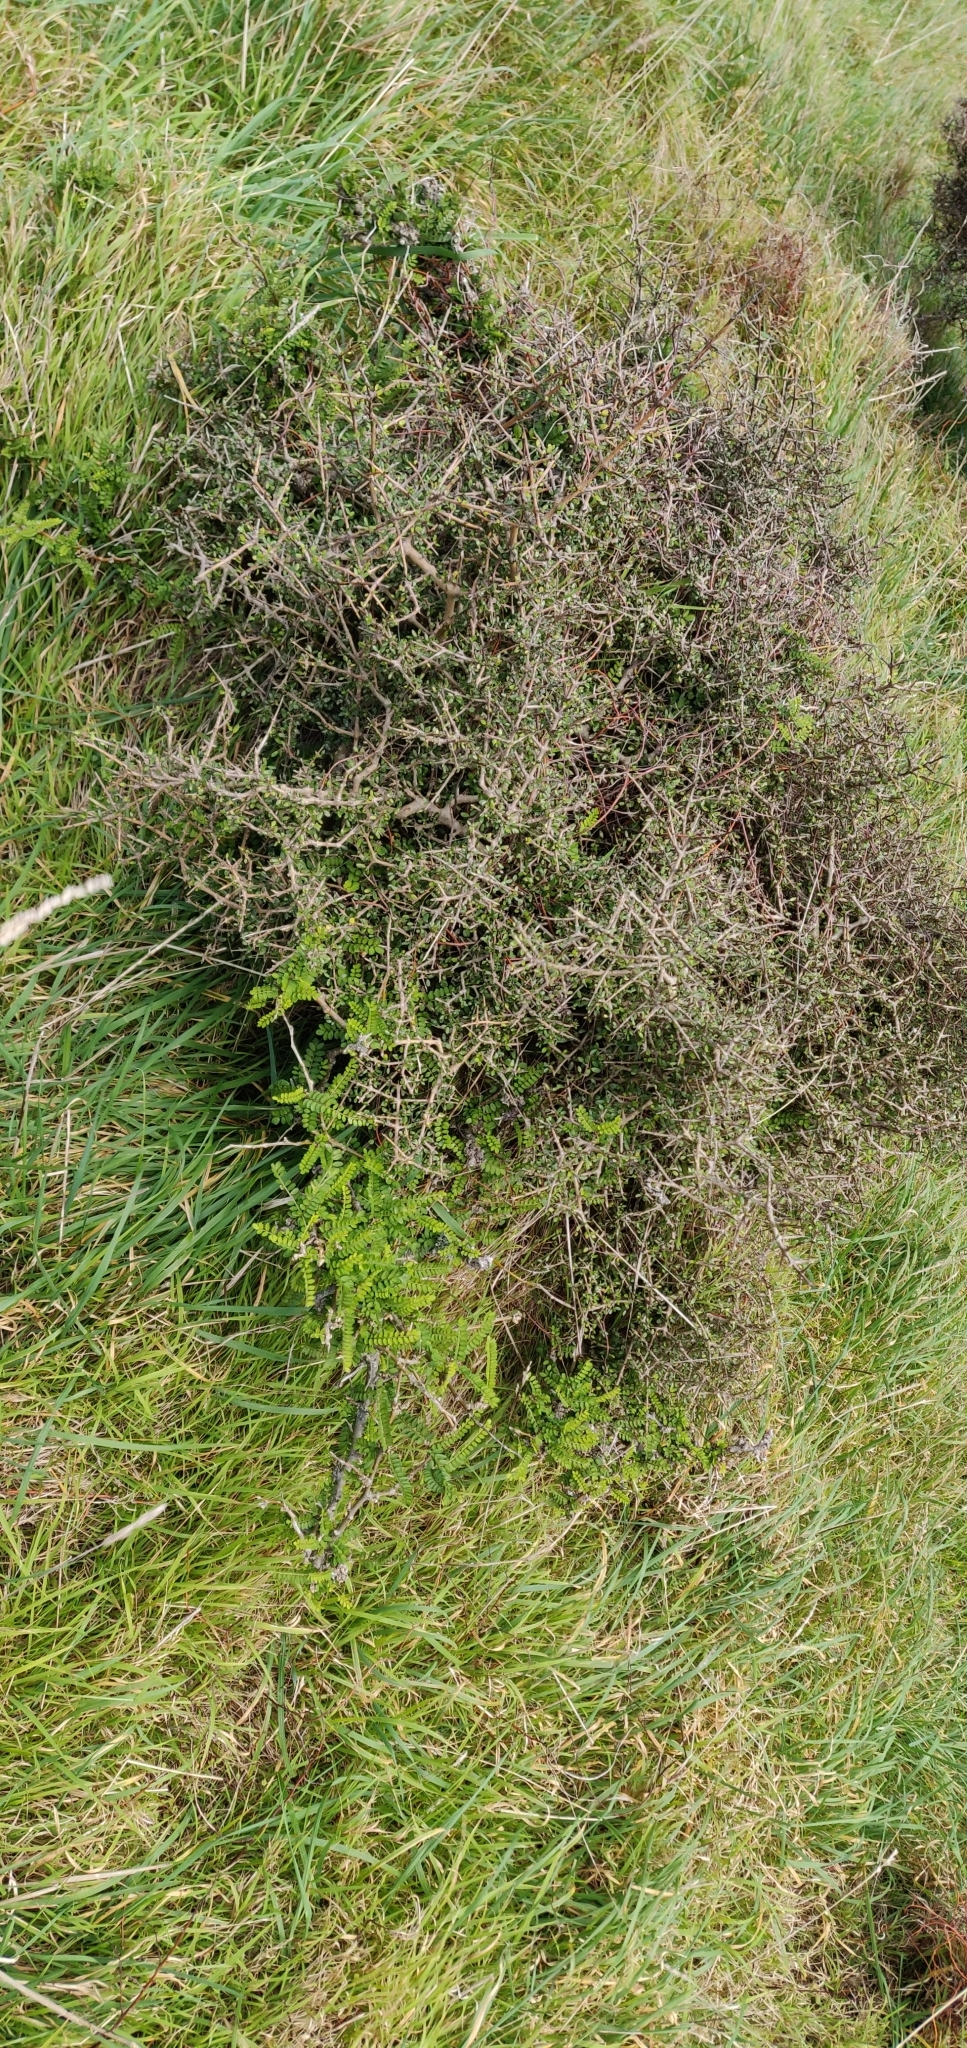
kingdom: Plantae
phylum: Tracheophyta
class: Magnoliopsida
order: Fabales
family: Fabaceae
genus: Sophora
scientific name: Sophora molloyi
